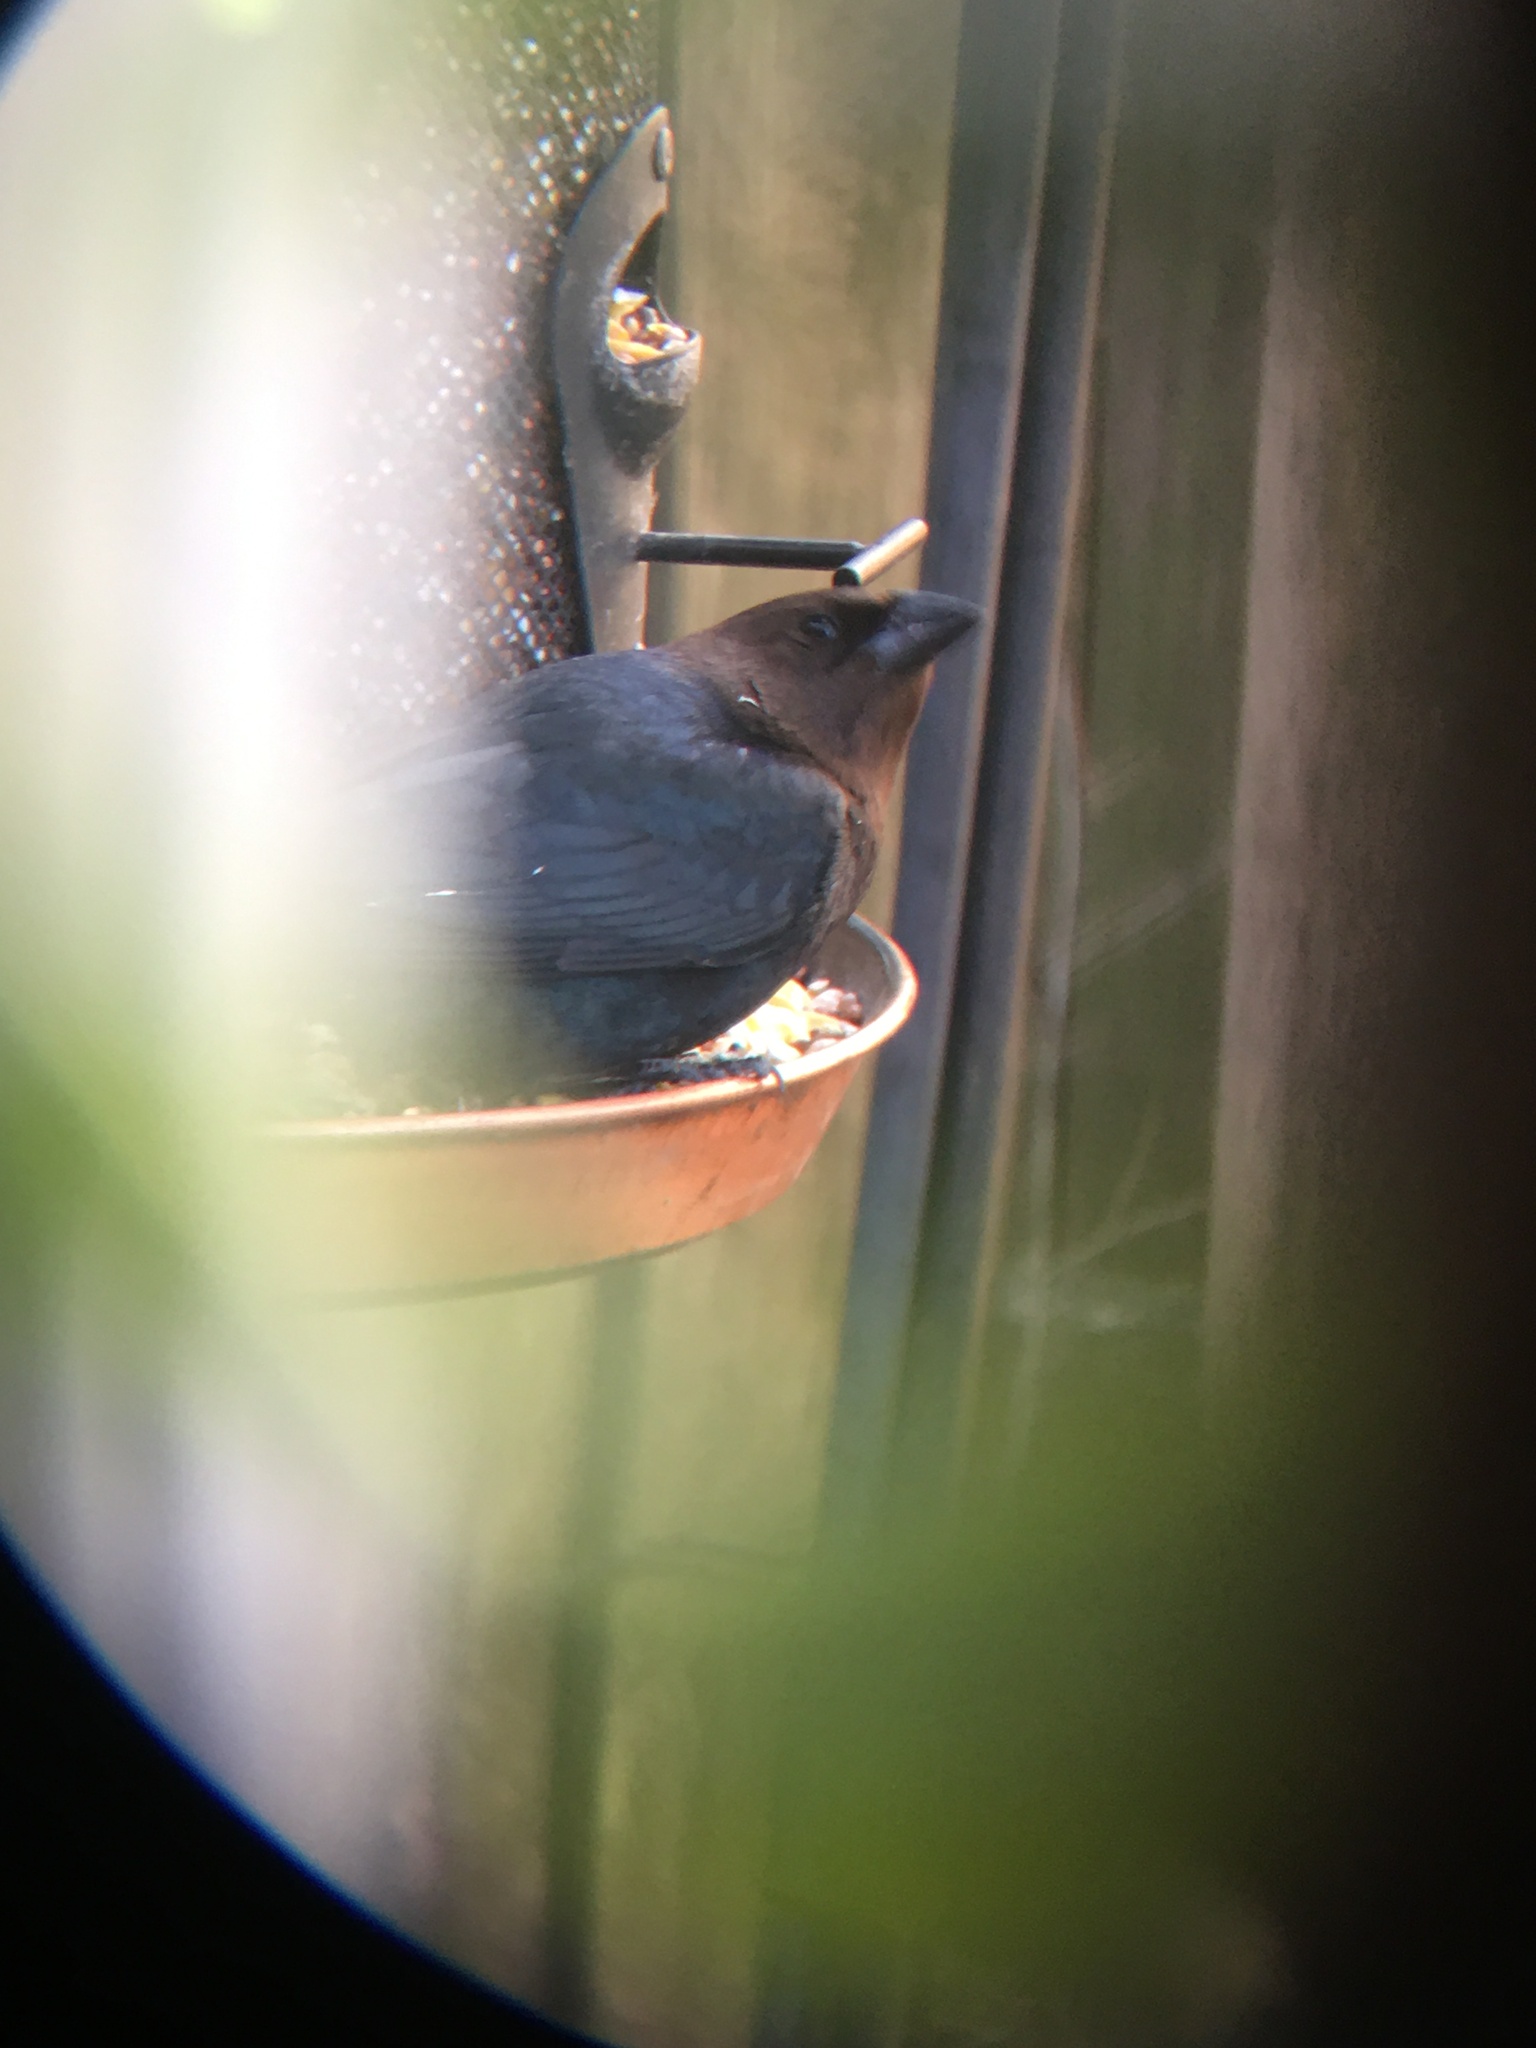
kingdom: Animalia
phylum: Chordata
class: Aves
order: Passeriformes
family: Icteridae
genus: Molothrus
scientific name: Molothrus ater
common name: Brown-headed cowbird
